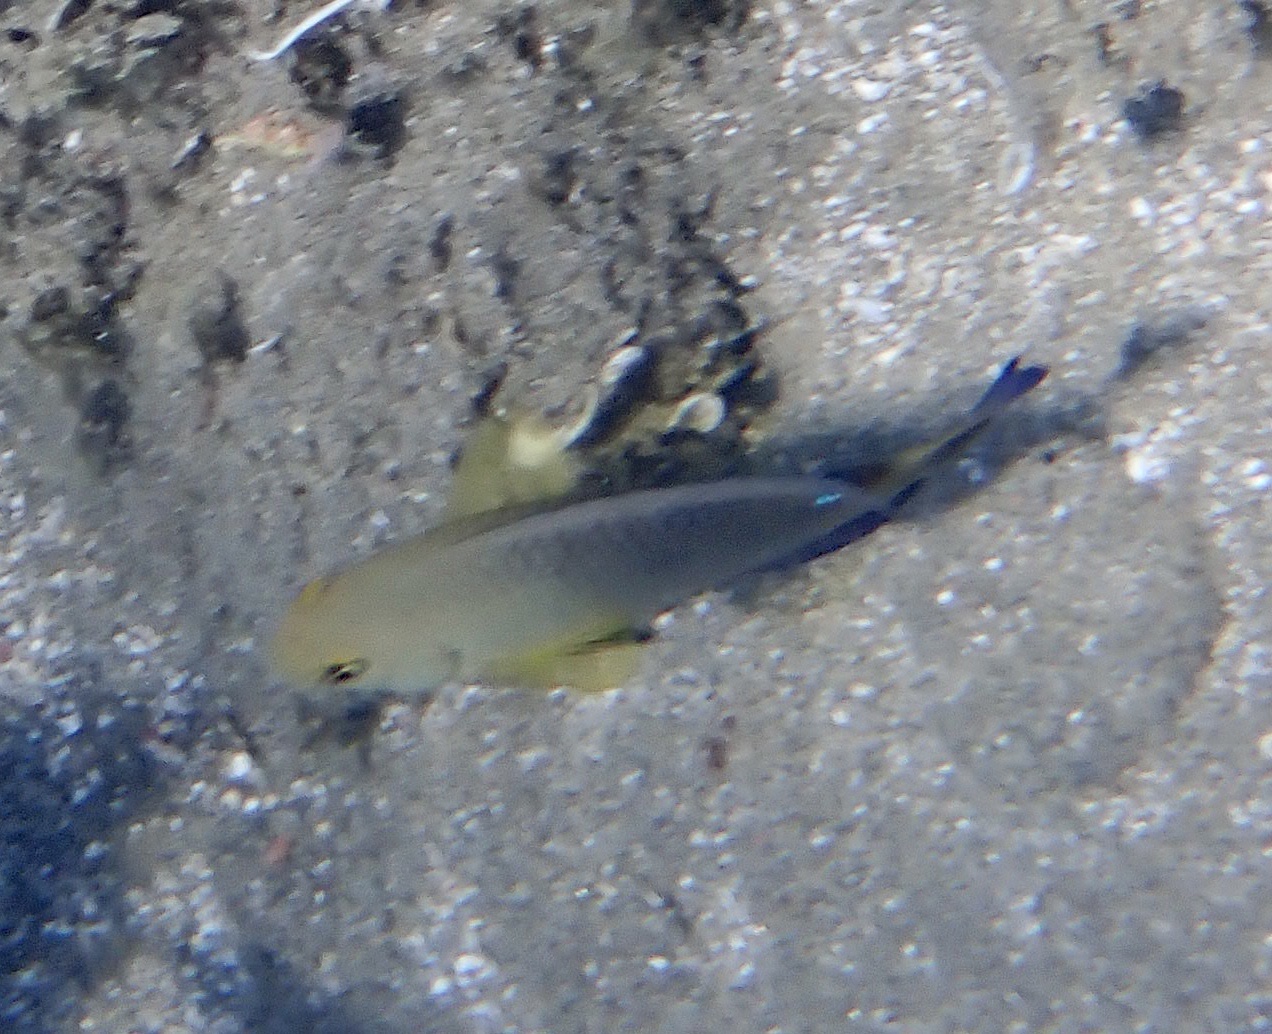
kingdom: Animalia
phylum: Chordata
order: Perciformes
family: Pomacentridae
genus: Chrysiptera
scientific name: Chrysiptera unimaculata
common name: Onespot demoiselle
